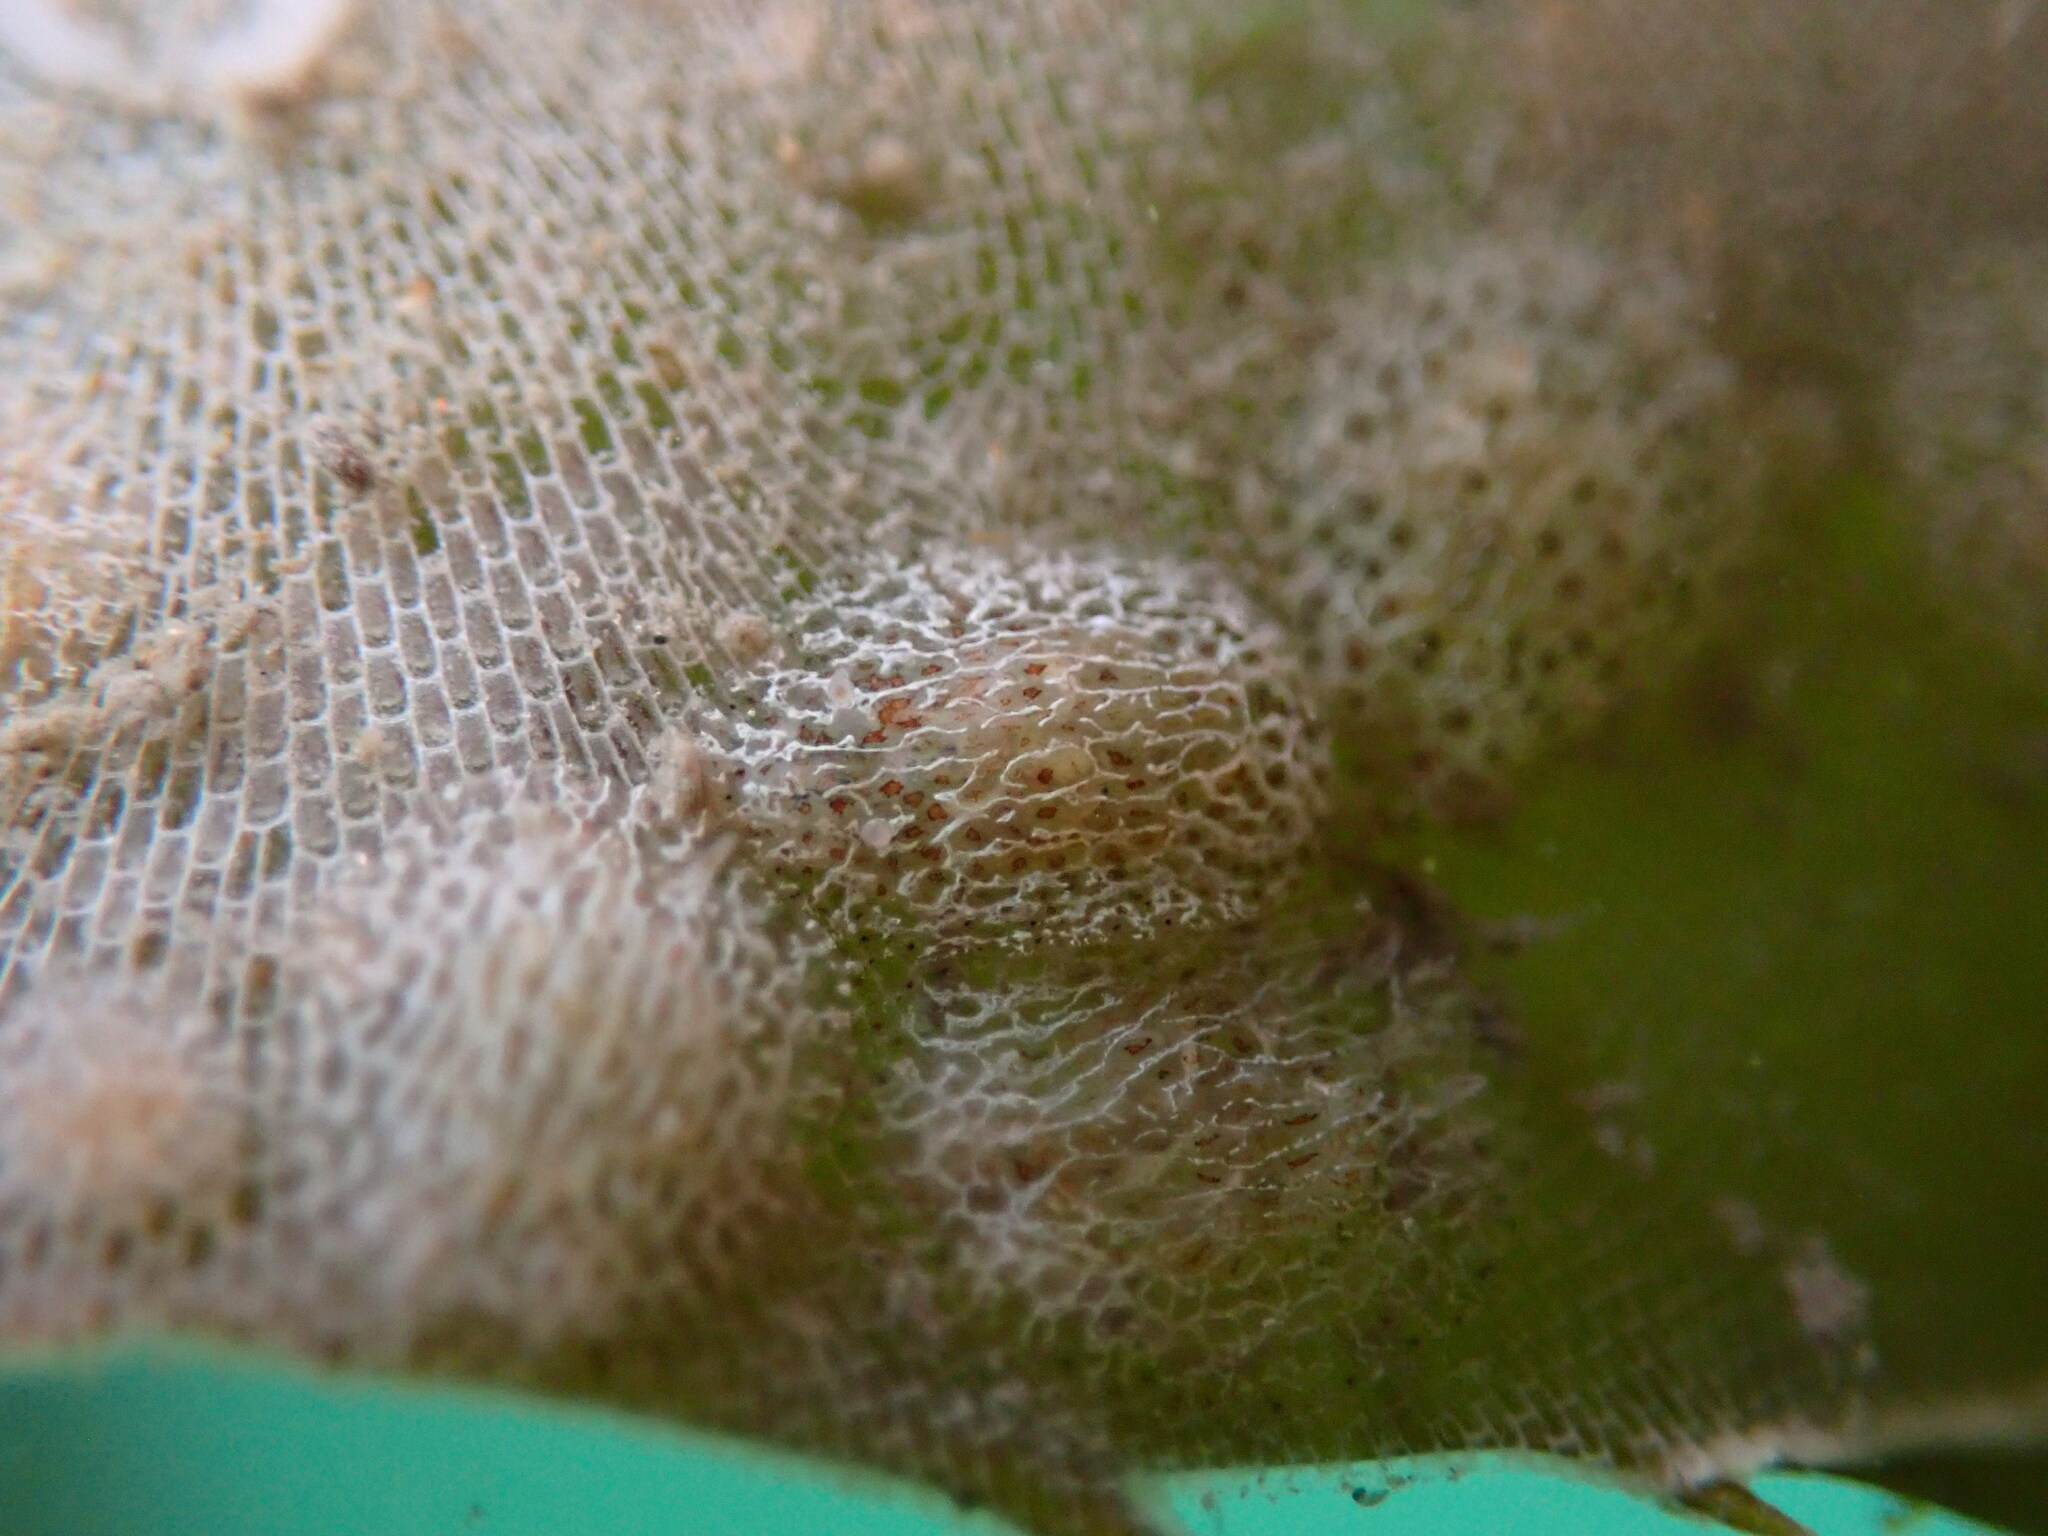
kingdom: Animalia
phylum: Mollusca
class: Gastropoda
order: Nudibranchia
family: Corambidae
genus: Corambe
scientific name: Corambe steinbergae
